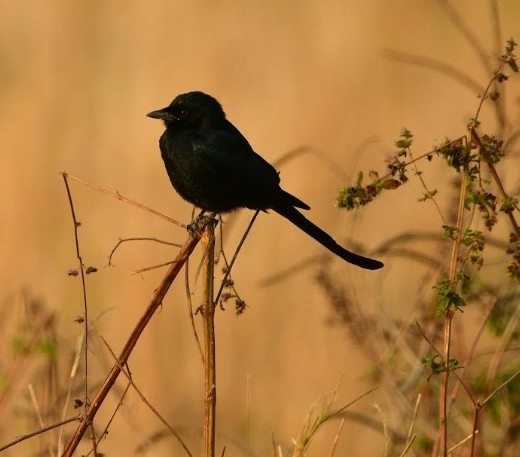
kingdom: Animalia
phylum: Chordata
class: Aves
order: Passeriformes
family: Dicruridae
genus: Dicrurus
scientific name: Dicrurus macrocercus
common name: Black drongo
